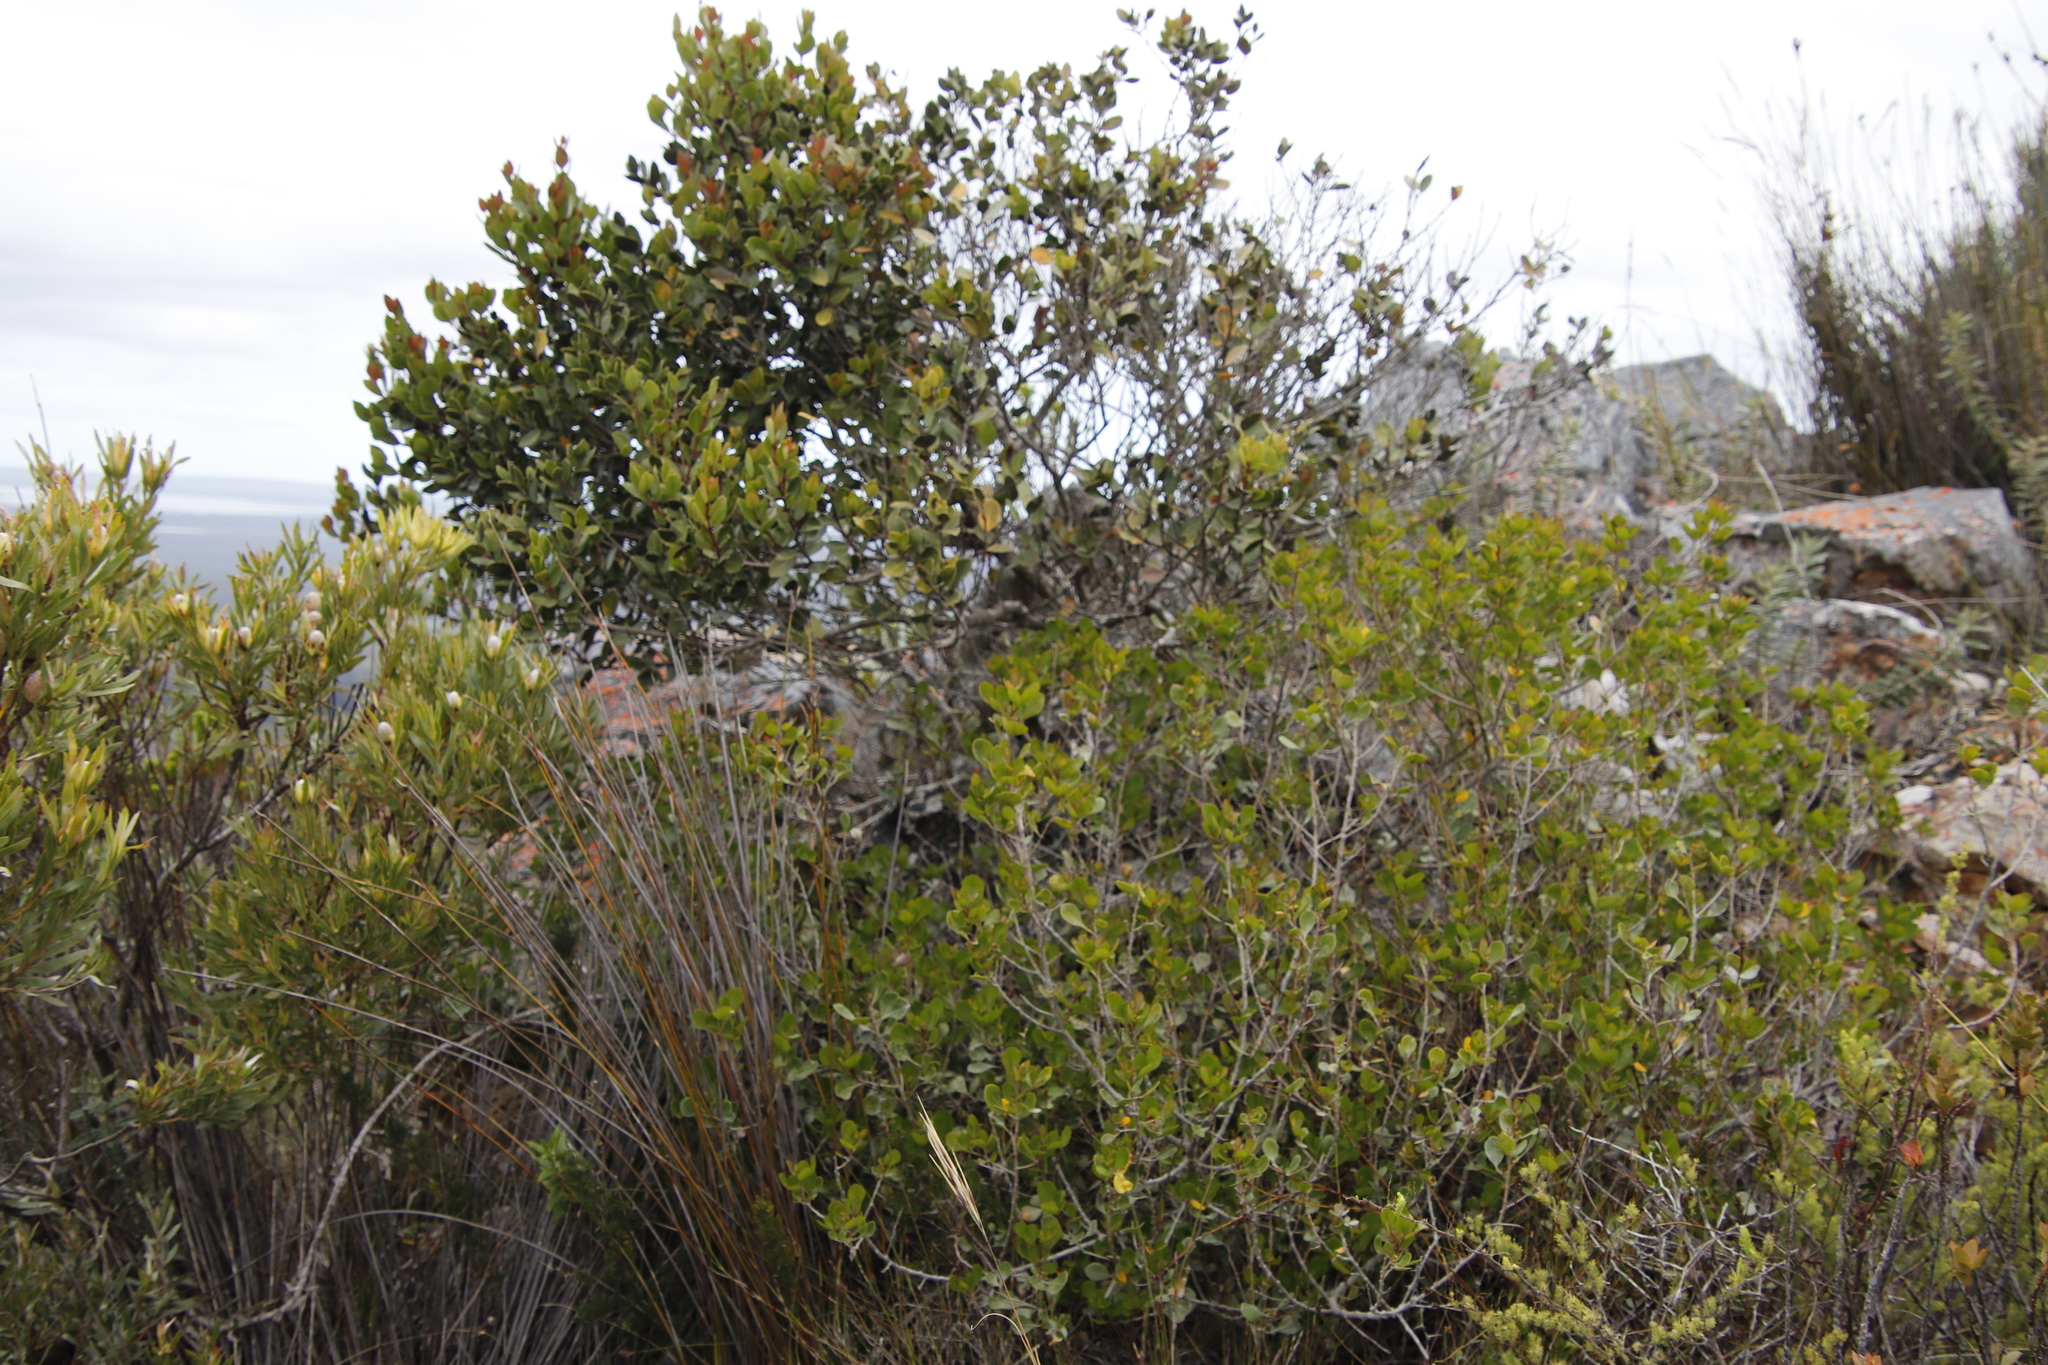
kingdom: Plantae
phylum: Tracheophyta
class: Magnoliopsida
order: Sapindales
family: Anacardiaceae
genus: Searsia
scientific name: Searsia lucida
